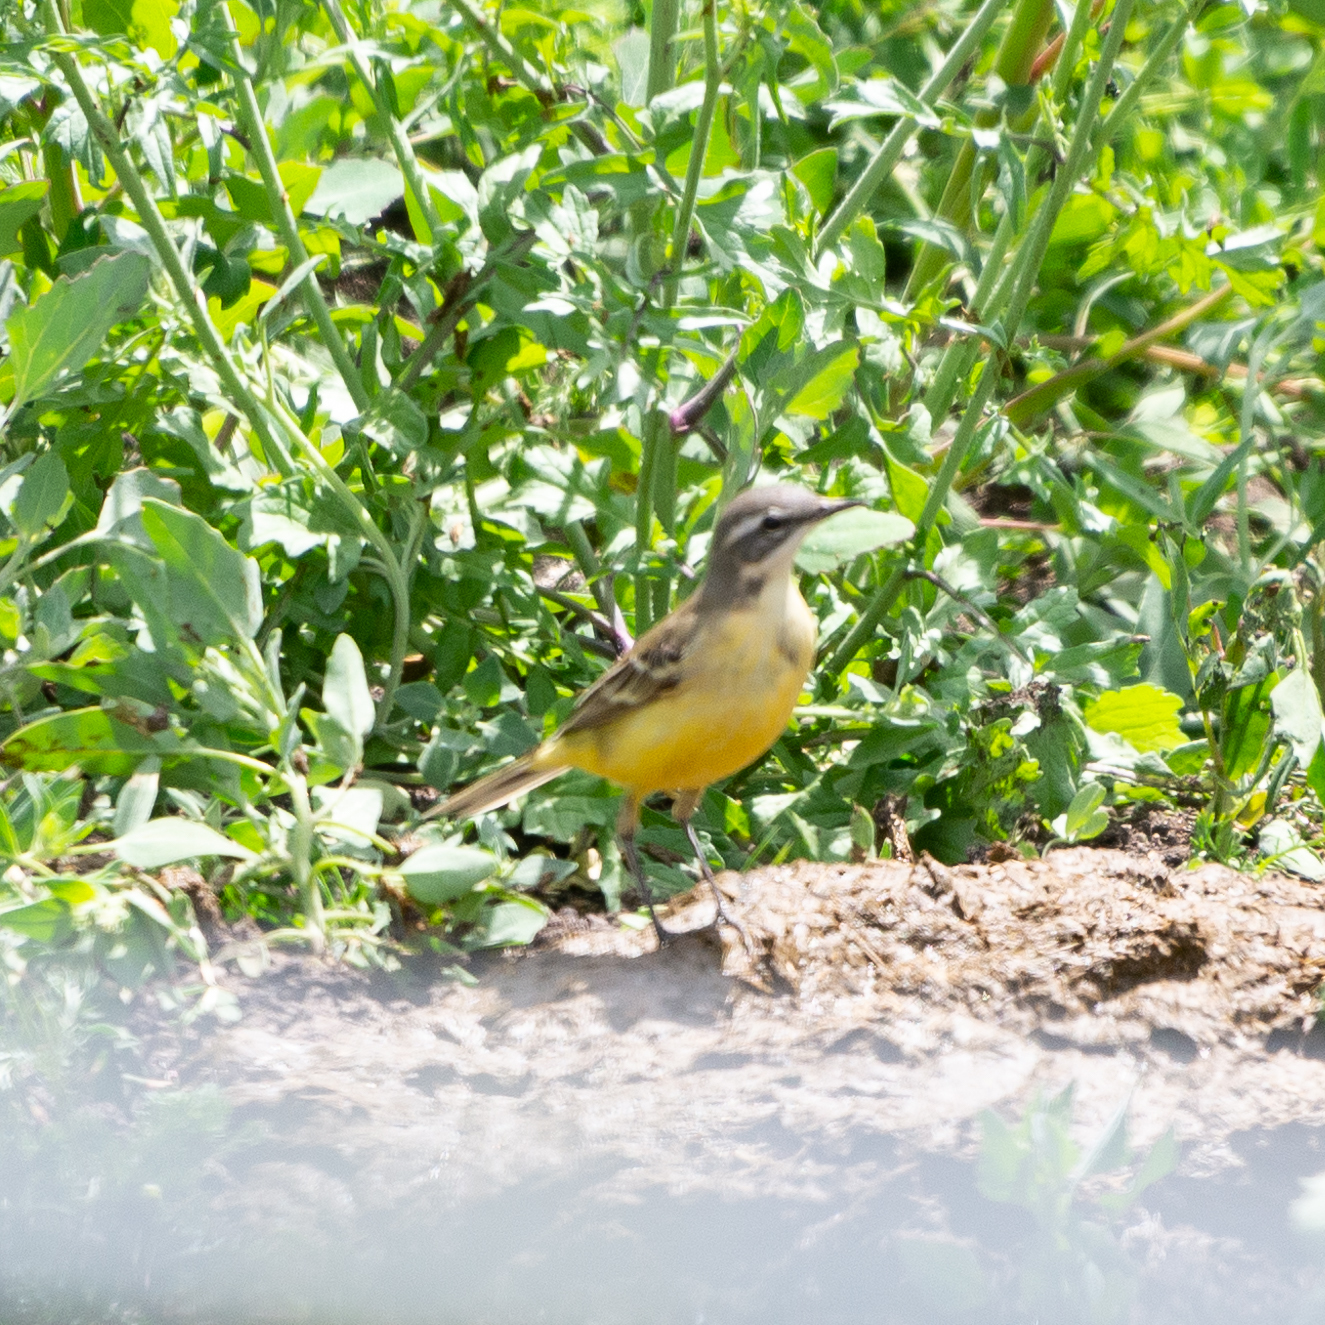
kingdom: Animalia
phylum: Chordata
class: Aves
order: Passeriformes
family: Motacillidae
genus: Motacilla
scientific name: Motacilla flava
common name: Western yellow wagtail
